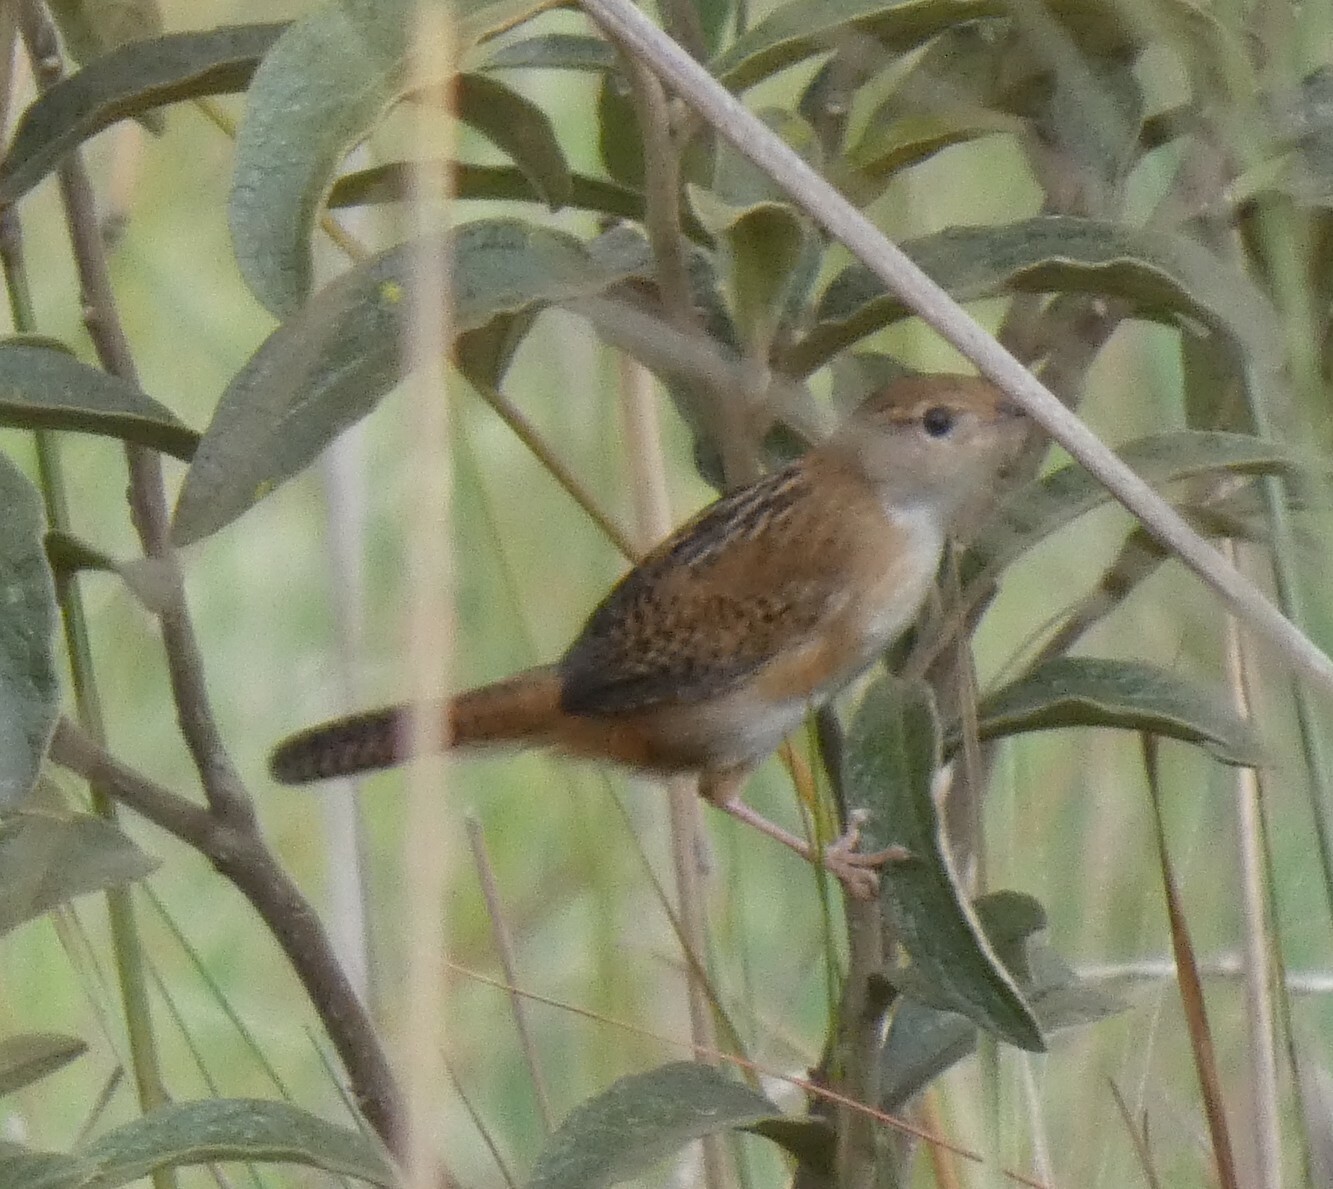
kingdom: Animalia
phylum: Chordata
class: Aves
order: Passeriformes
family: Troglodytidae
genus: Cistothorus
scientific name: Cistothorus platensis
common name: Sedge wren
